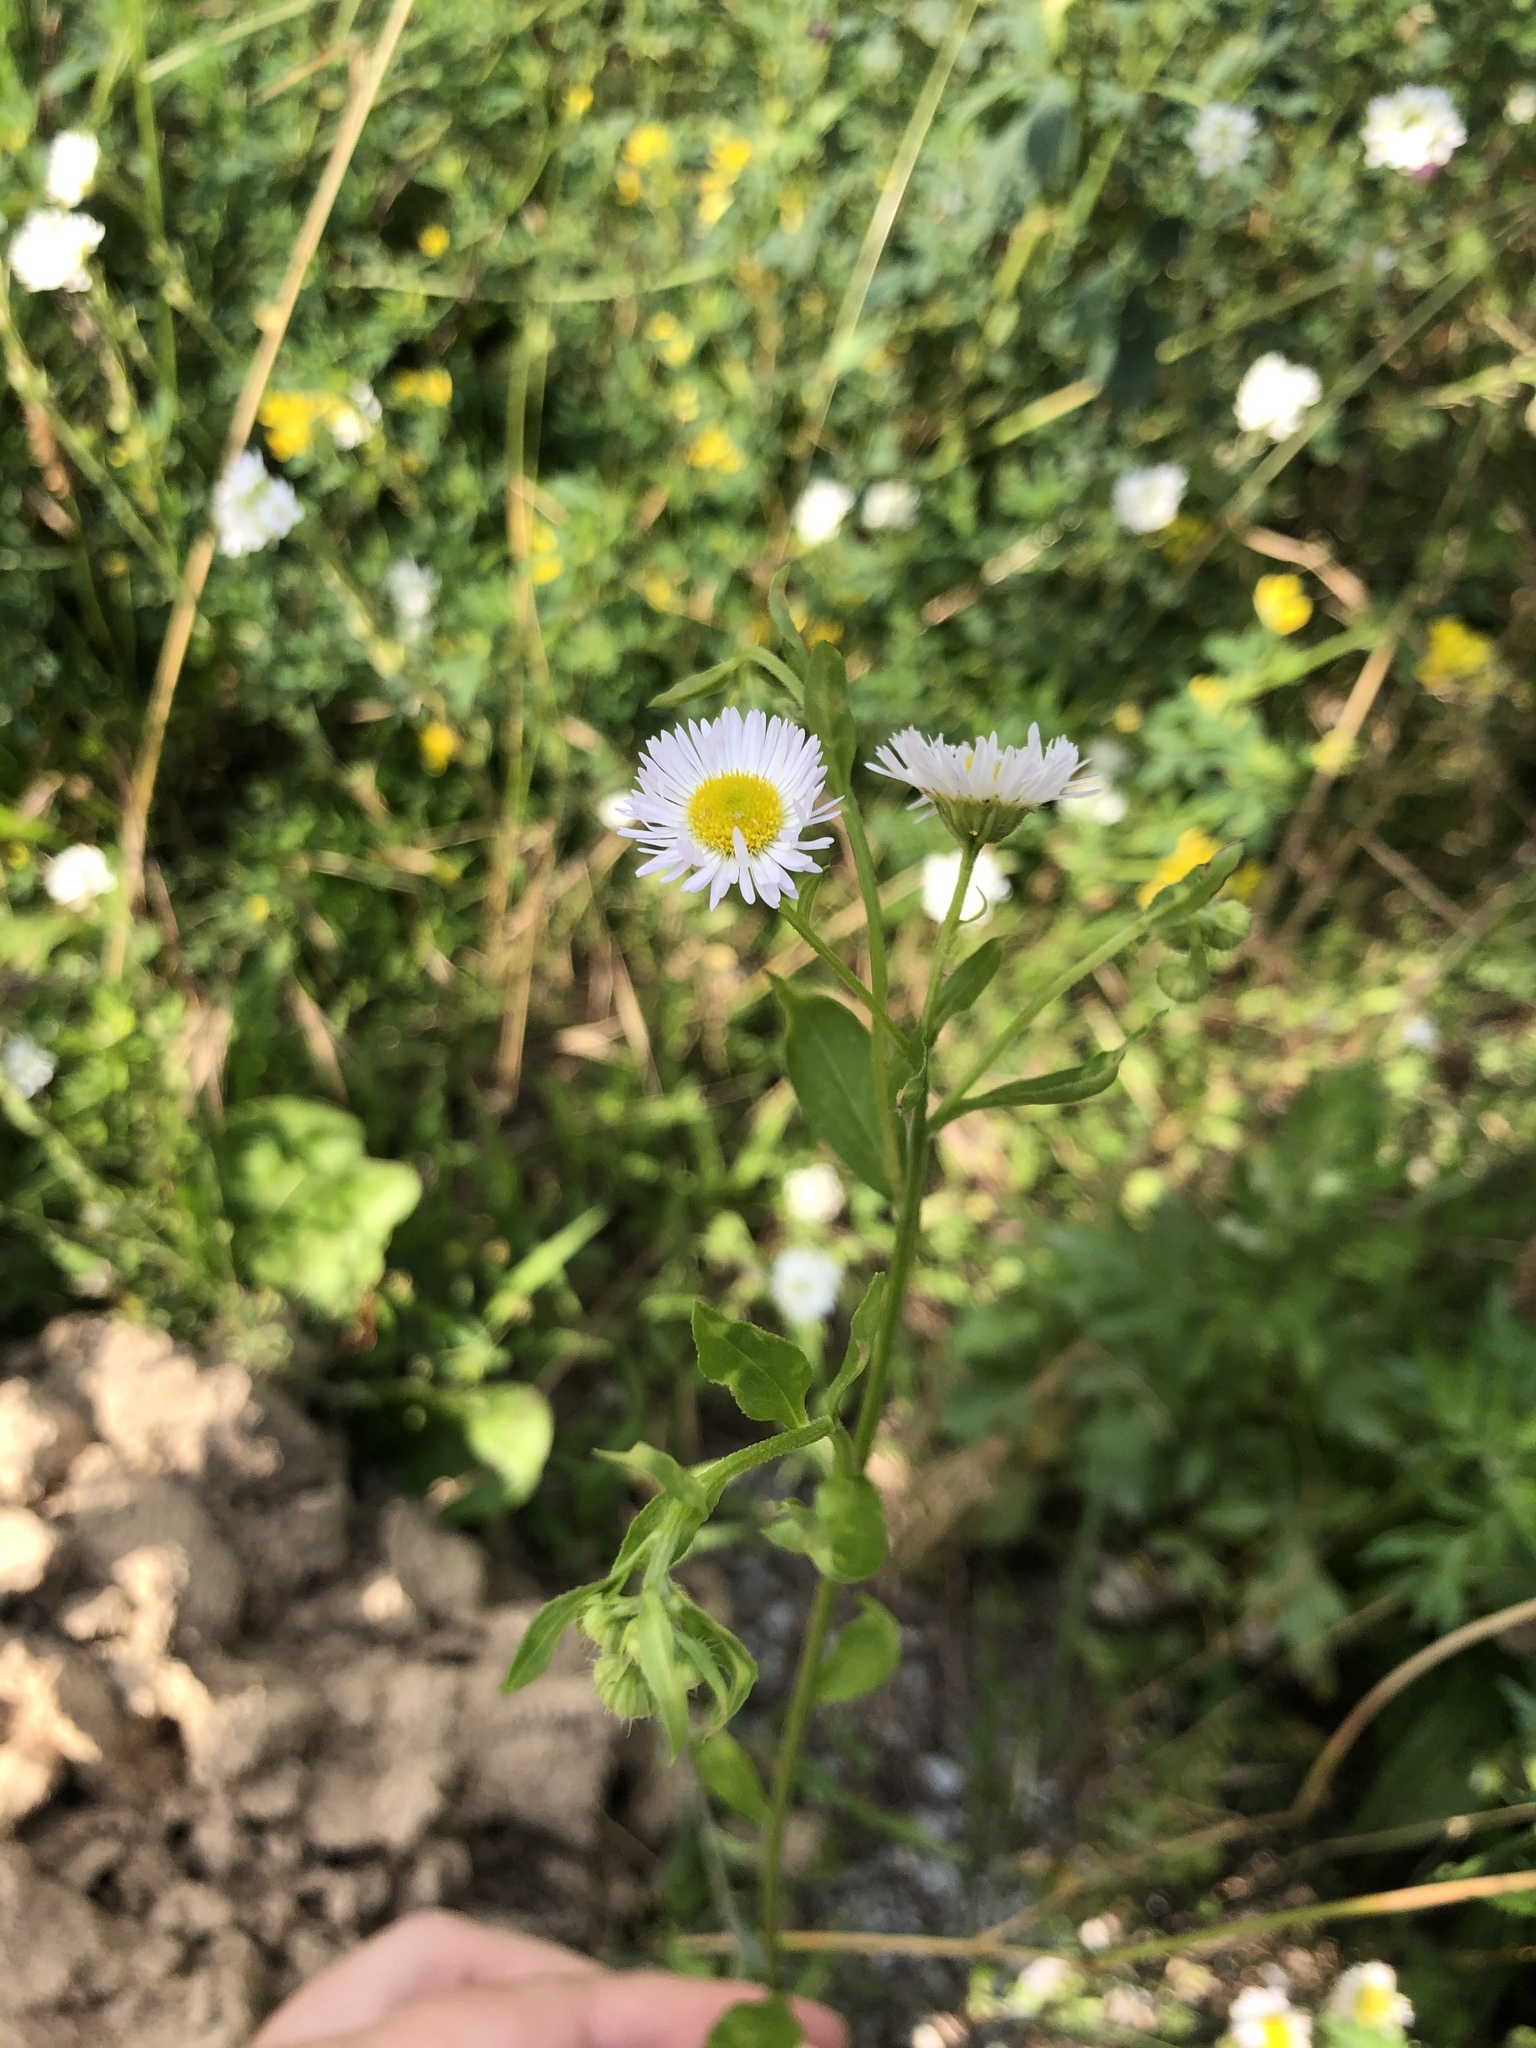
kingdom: Plantae
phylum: Tracheophyta
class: Magnoliopsida
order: Asterales
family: Asteraceae
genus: Erigeron
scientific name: Erigeron annuus
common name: Tall fleabane
